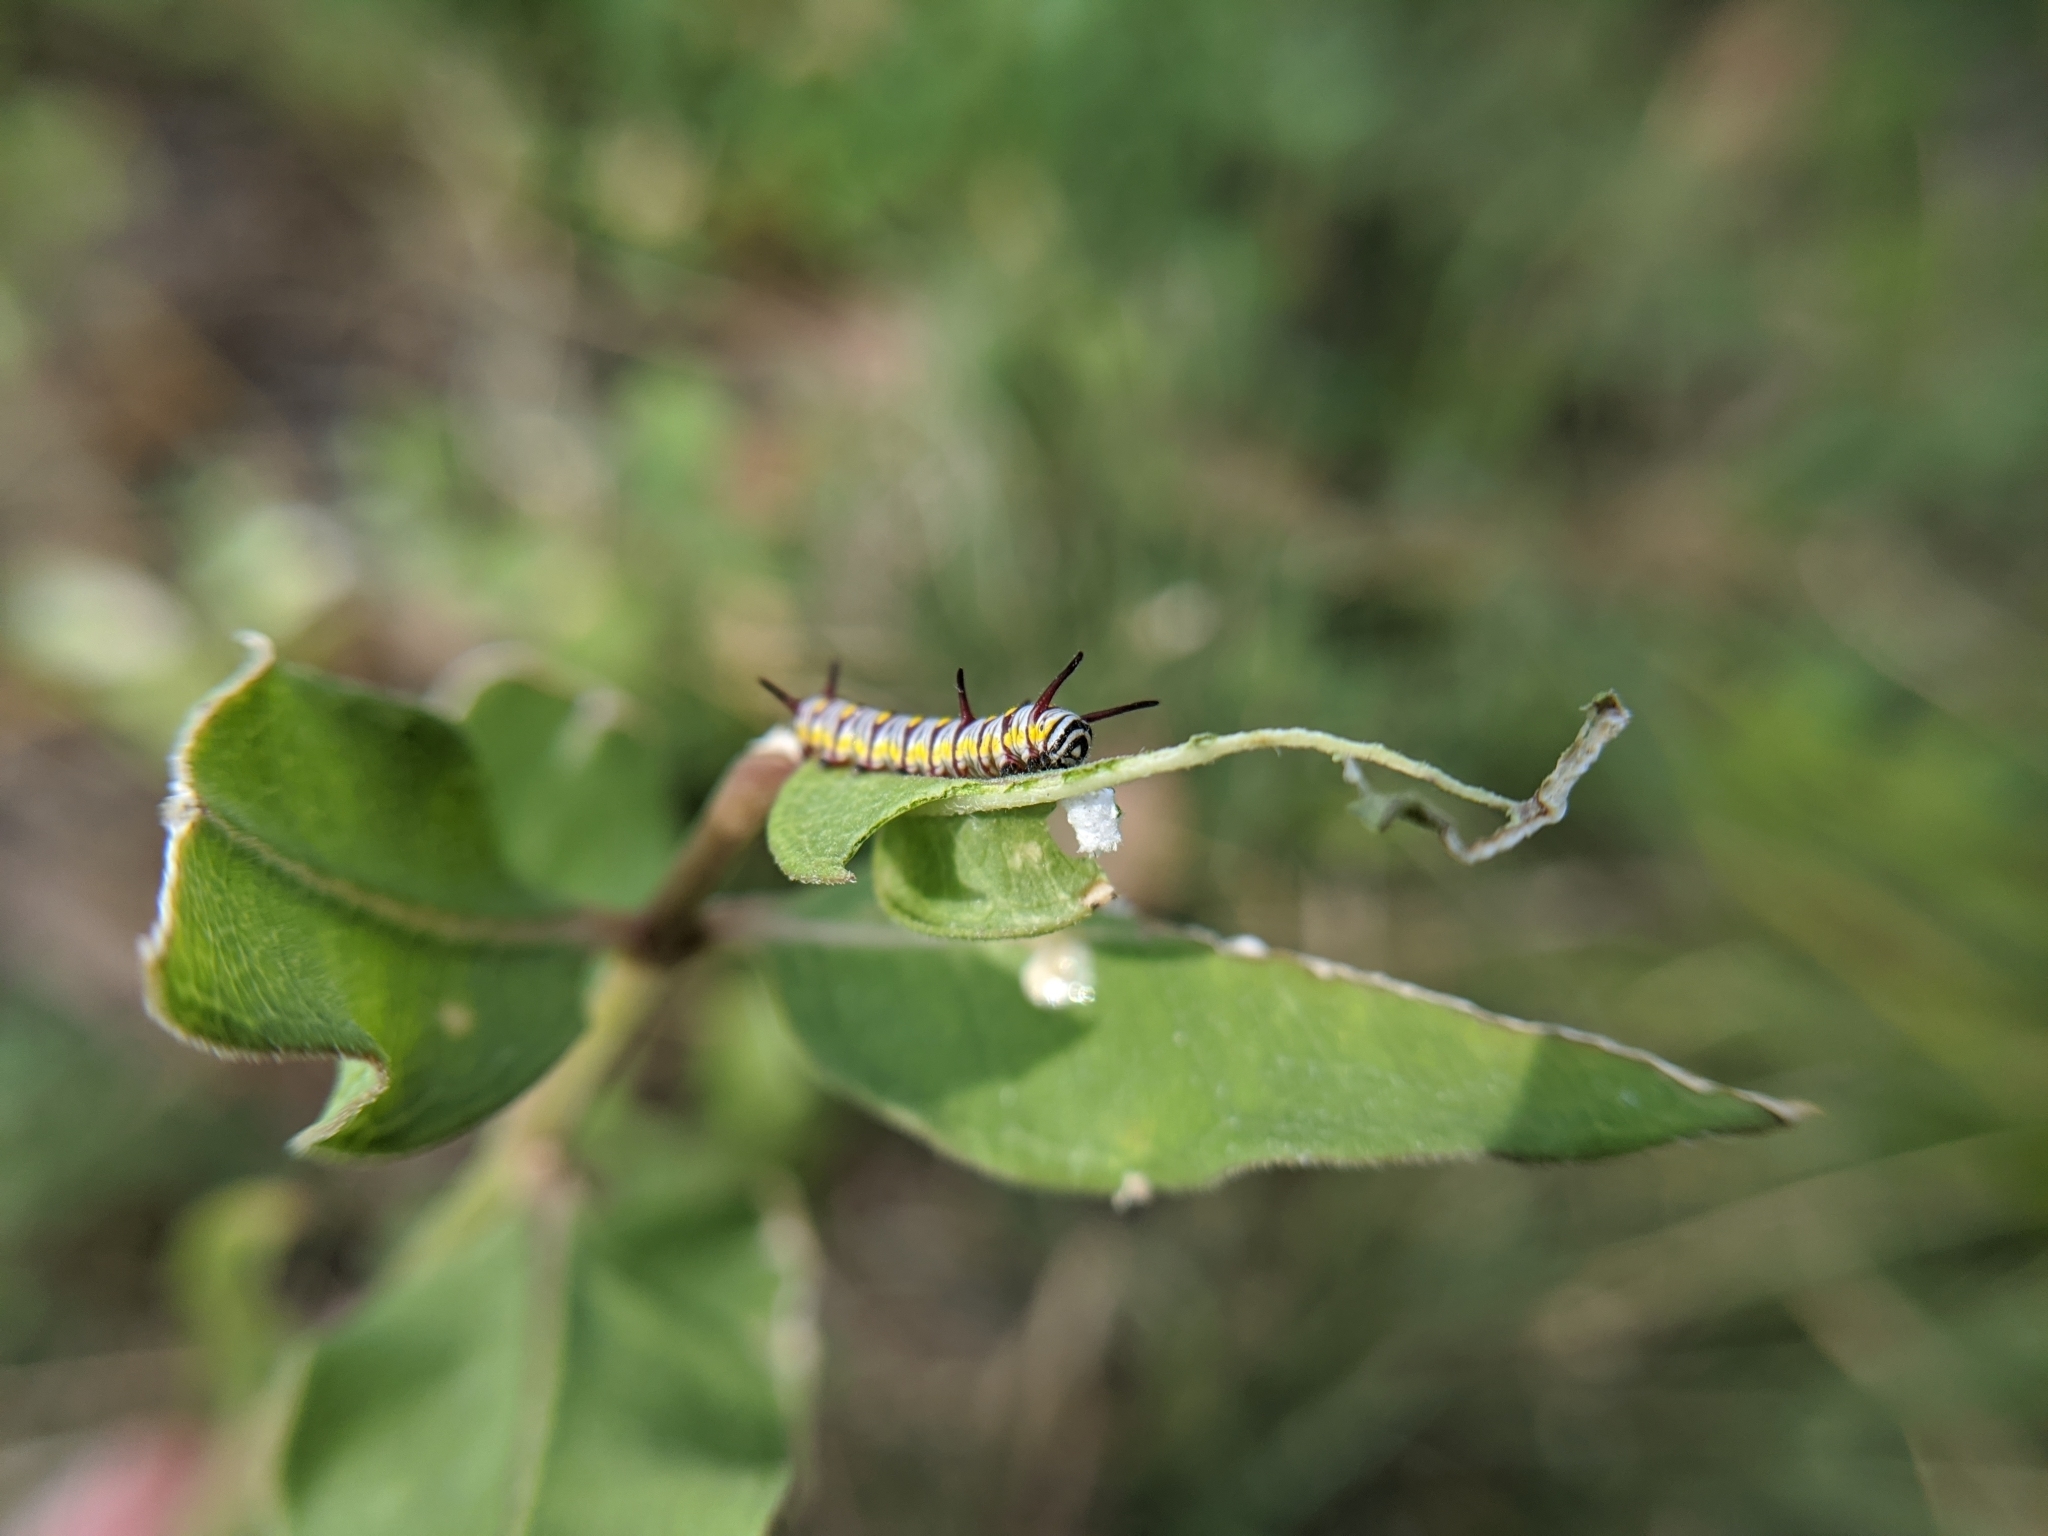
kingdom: Animalia
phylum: Arthropoda
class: Insecta
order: Lepidoptera
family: Nymphalidae
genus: Danaus
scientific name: Danaus gilippus
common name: Queen
